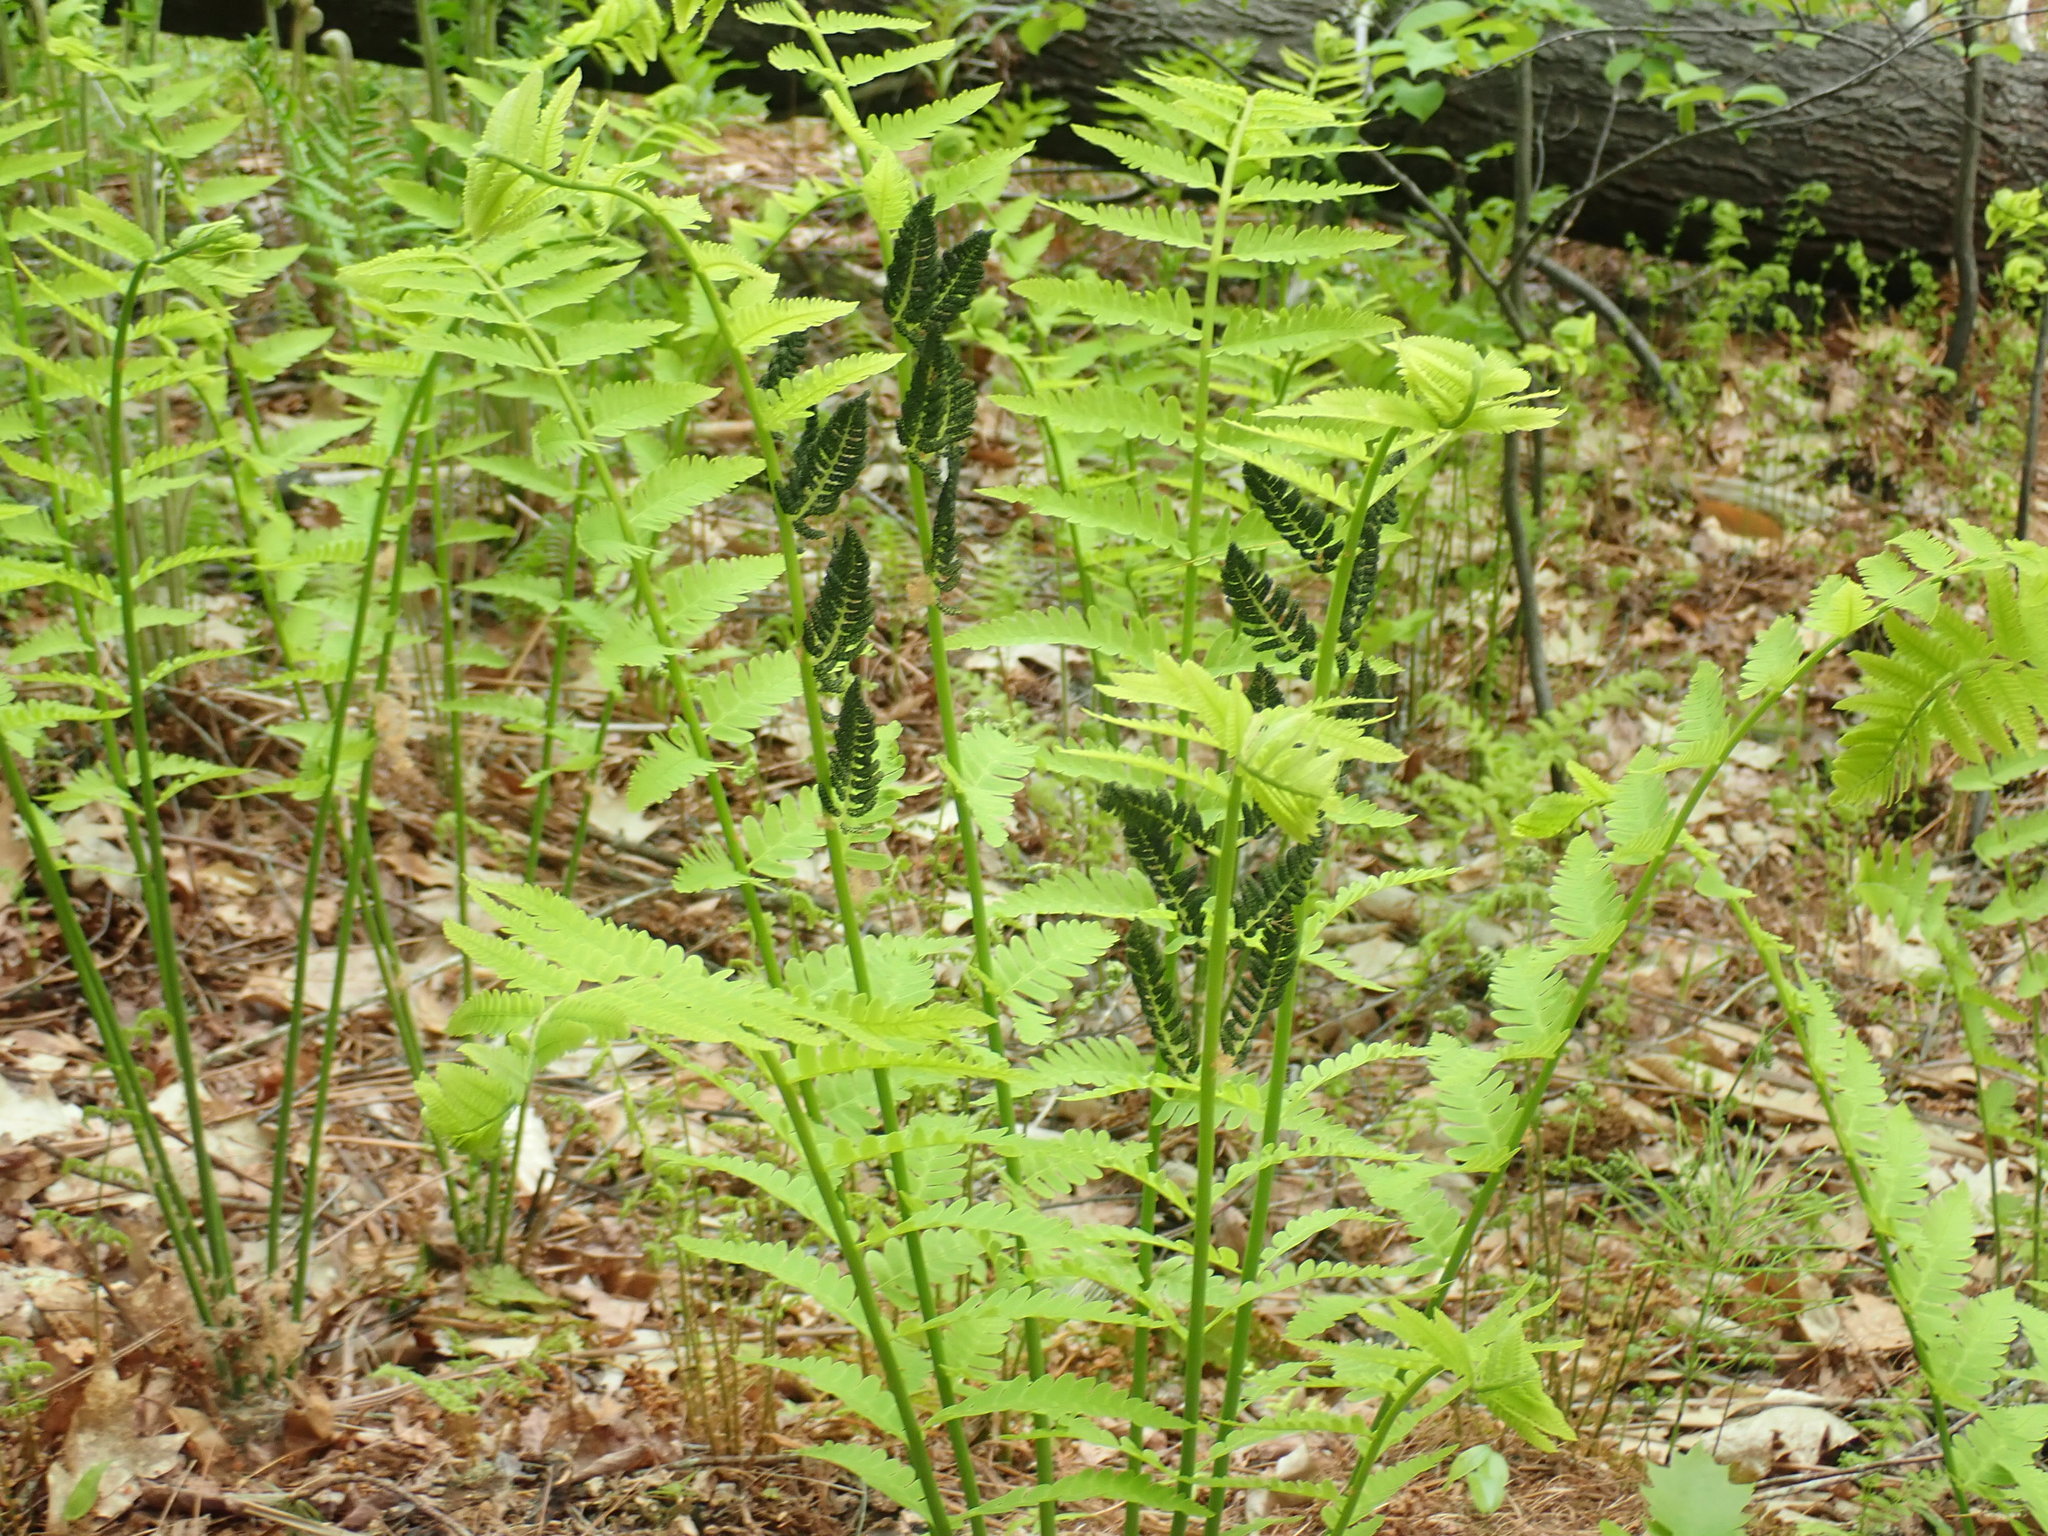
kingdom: Plantae
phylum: Tracheophyta
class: Polypodiopsida
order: Osmundales
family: Osmundaceae
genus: Claytosmunda
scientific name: Claytosmunda claytoniana
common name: Clayton's fern
